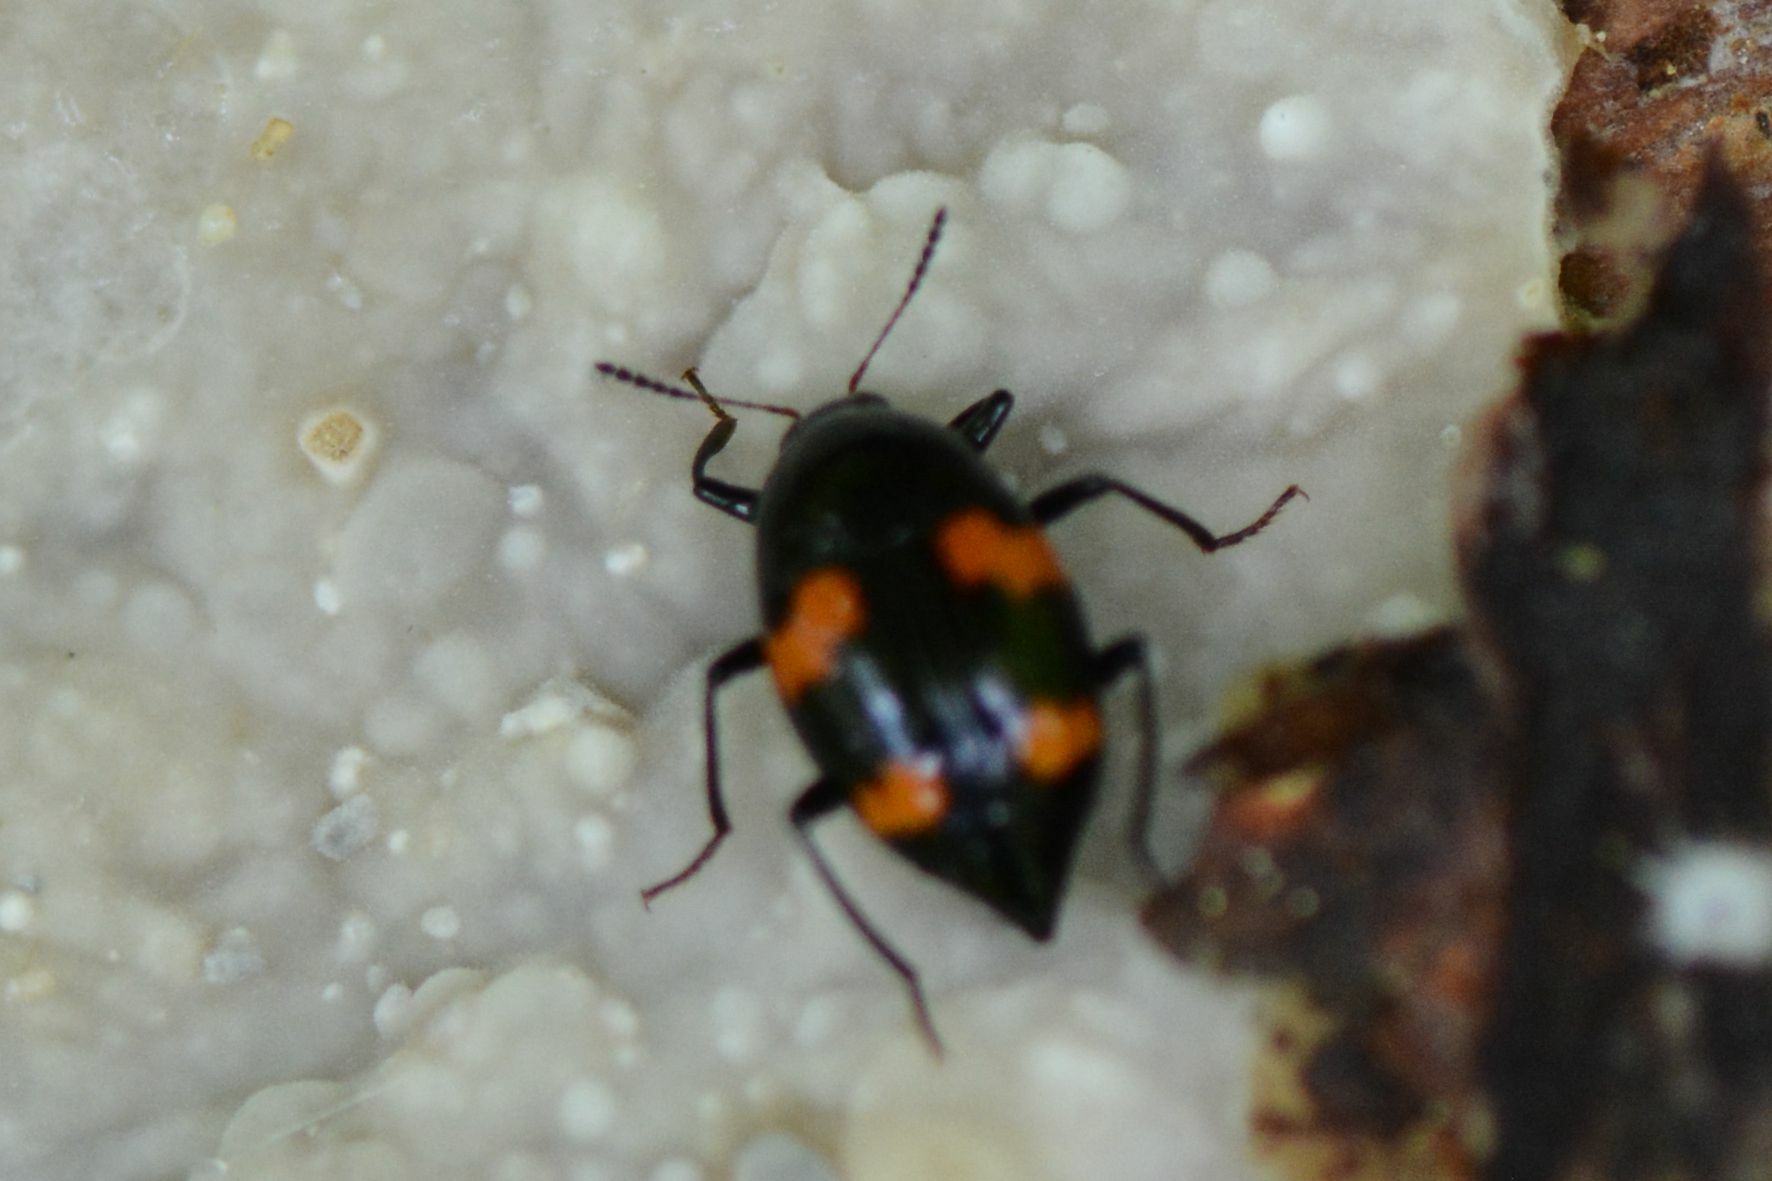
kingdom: Animalia
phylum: Arthropoda
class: Insecta
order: Coleoptera
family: Staphylinidae
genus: Scaphidium
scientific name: Scaphidium quadrimaculatum
